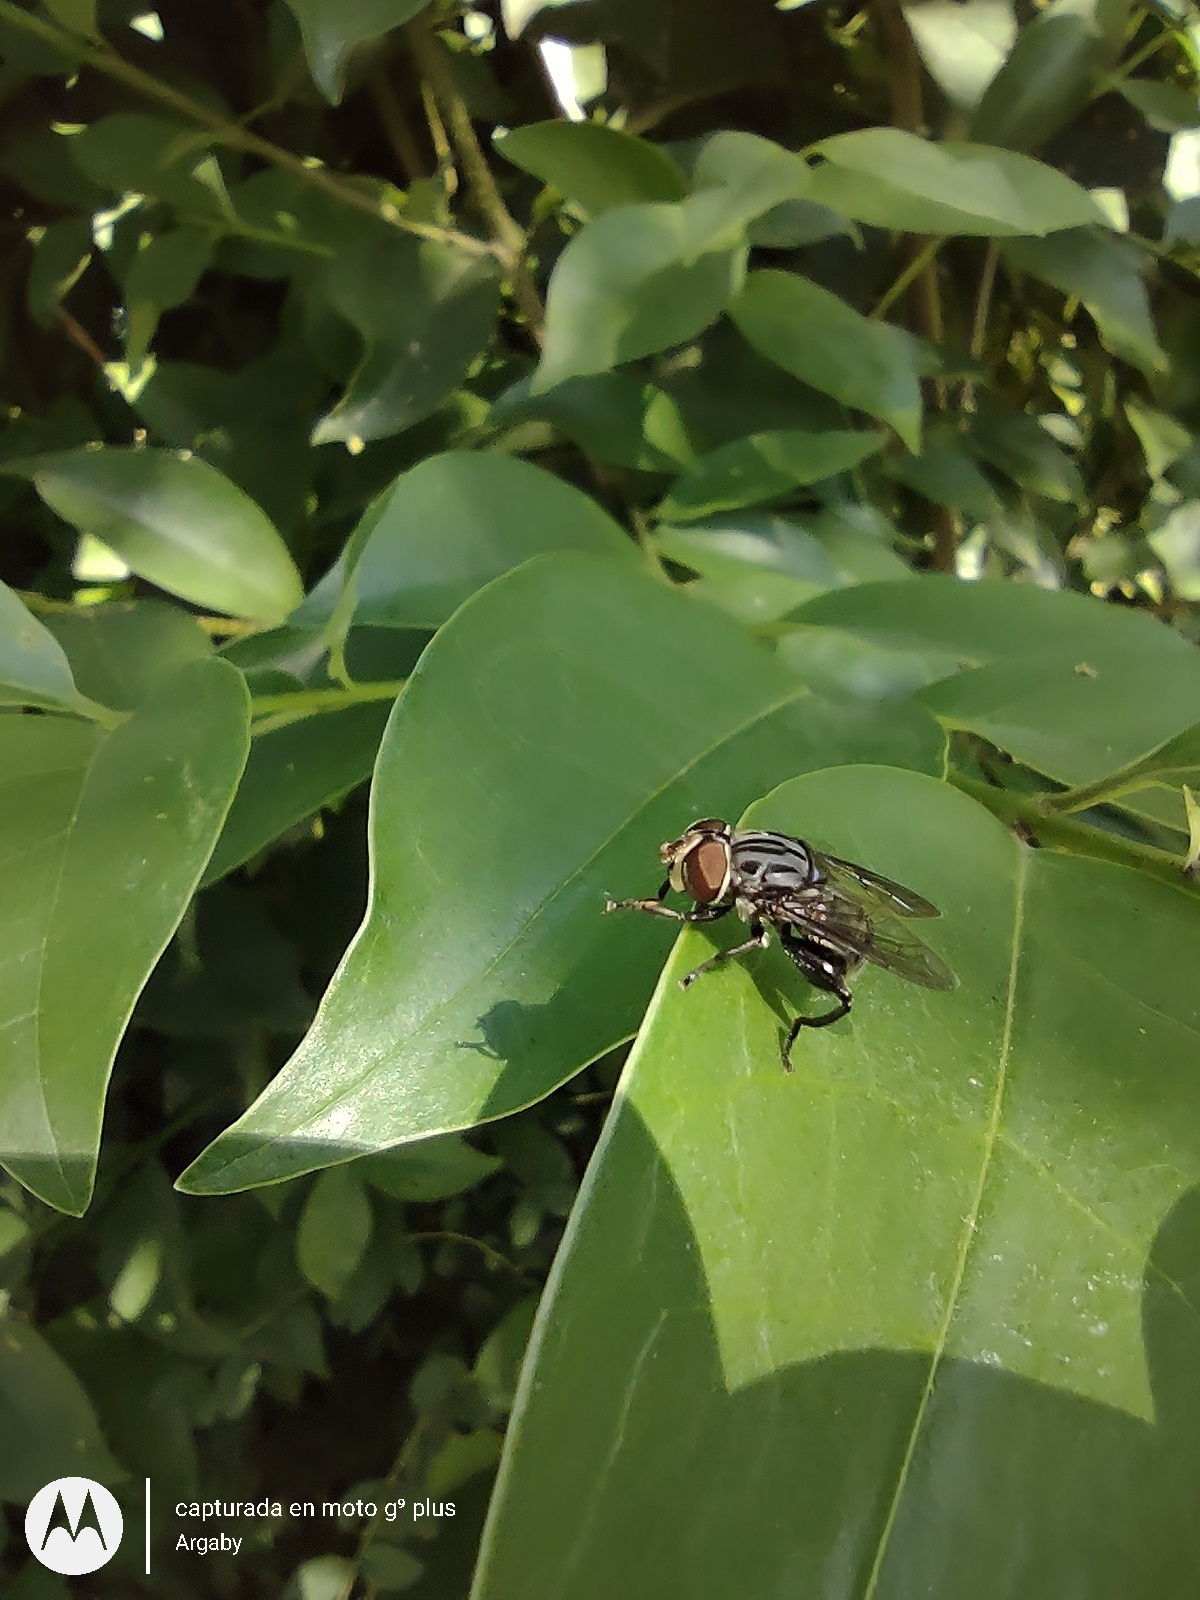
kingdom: Animalia
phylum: Arthropoda
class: Insecta
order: Diptera
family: Syrphidae
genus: Palpada
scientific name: Palpada furcata
